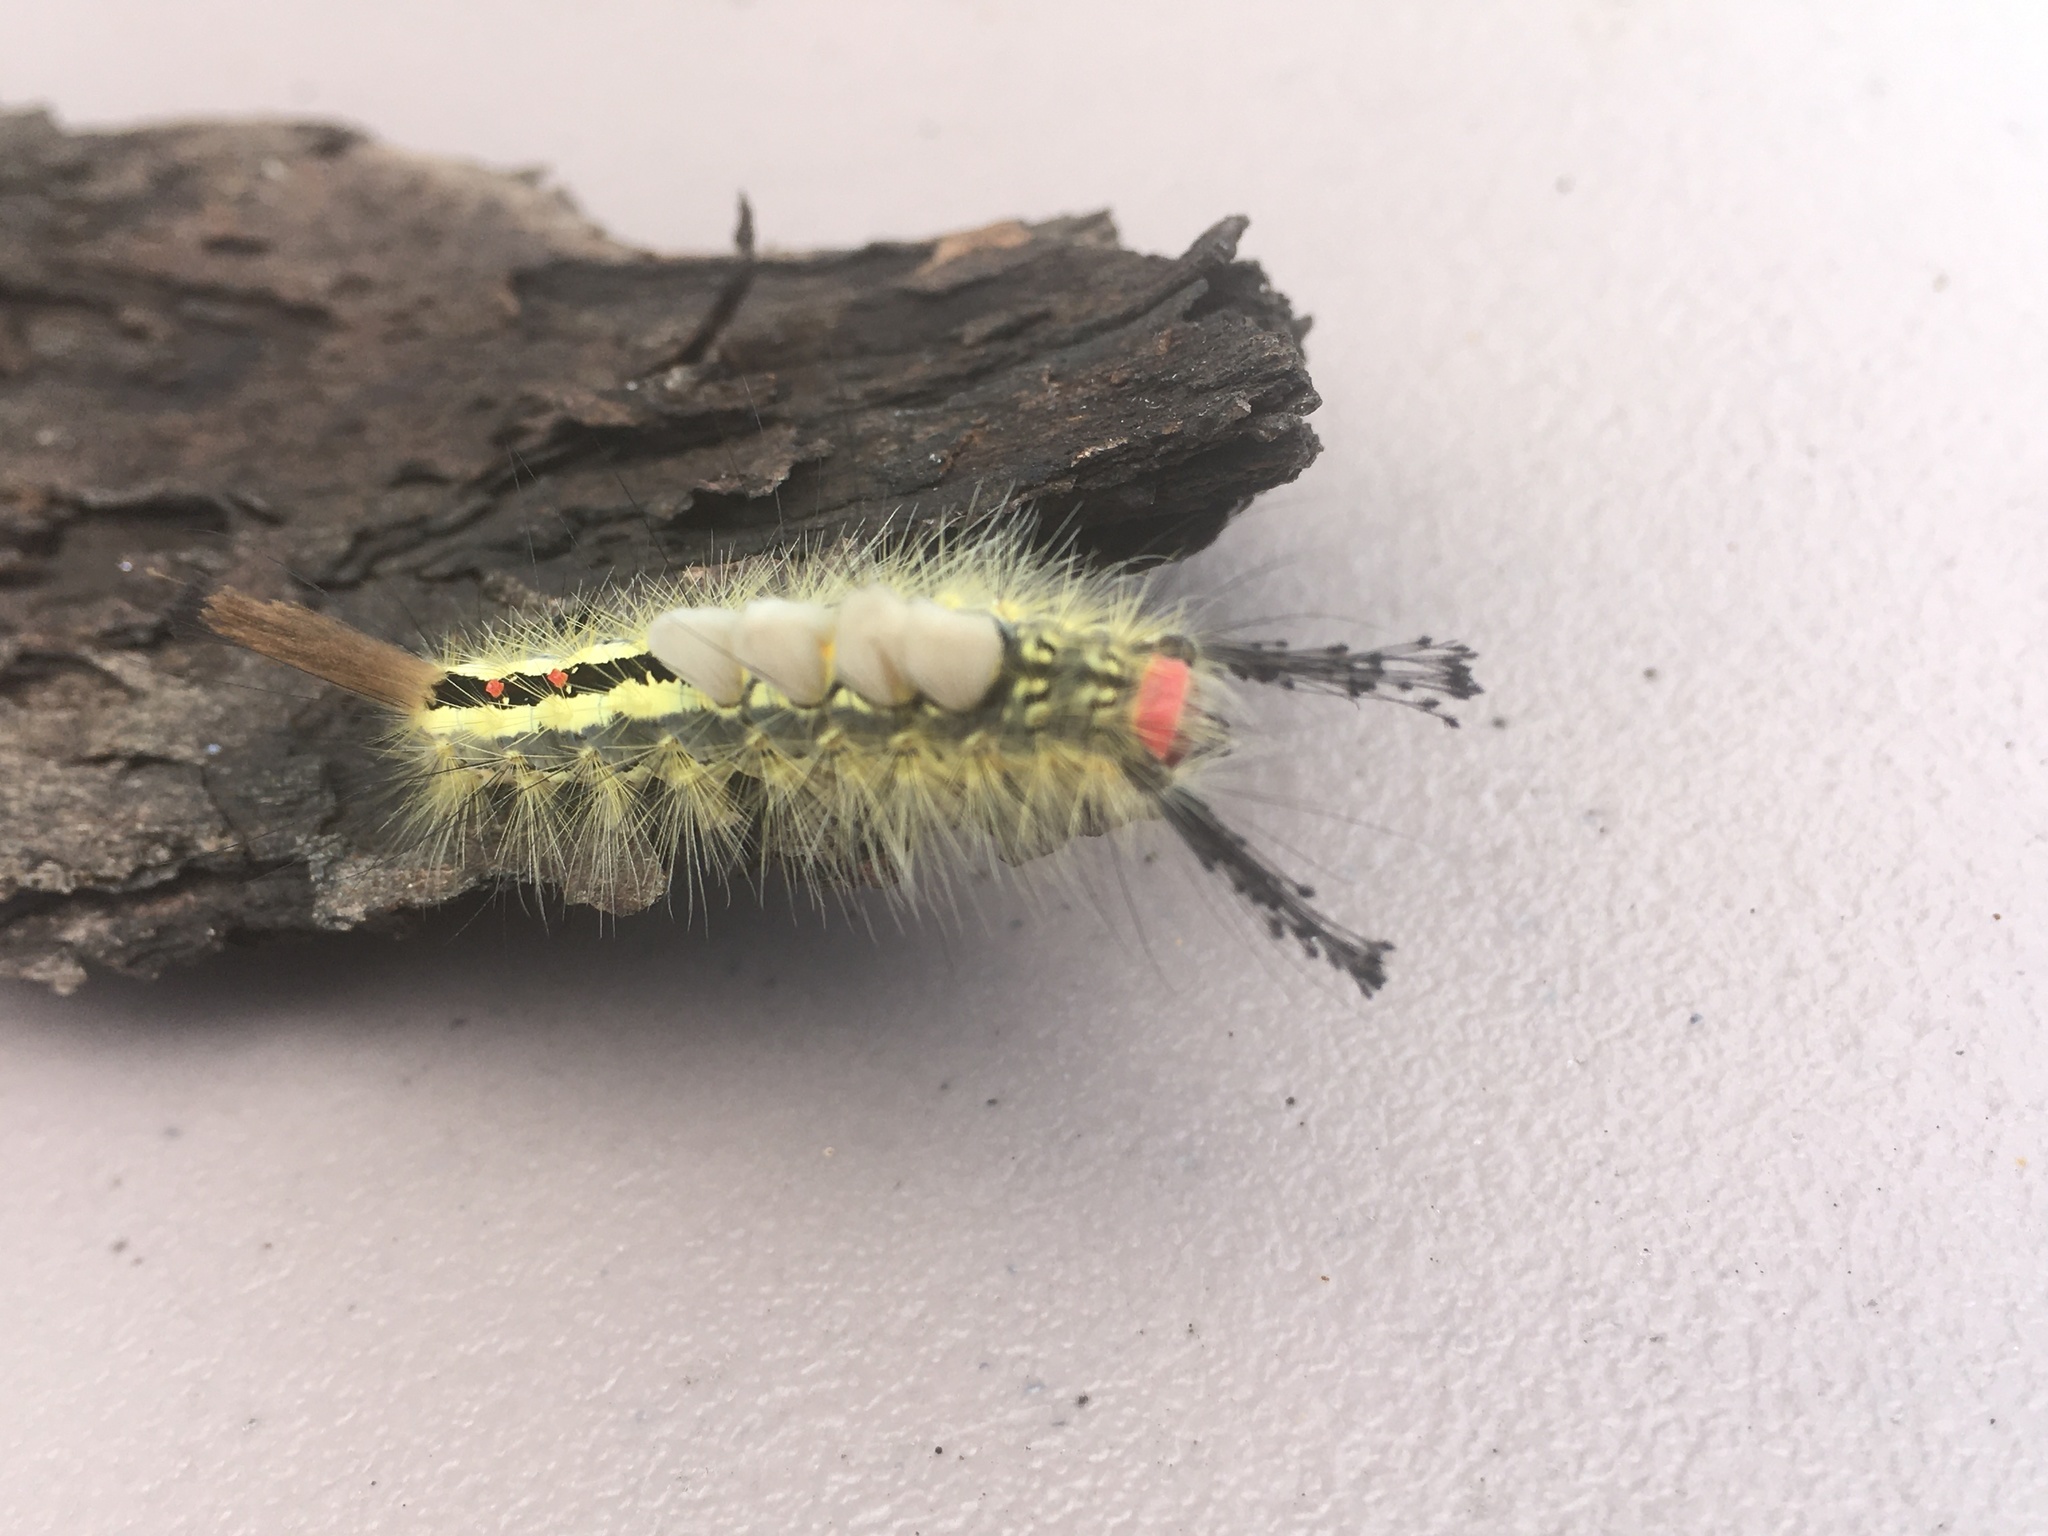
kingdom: Animalia
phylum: Arthropoda
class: Insecta
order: Lepidoptera
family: Erebidae
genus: Orgyia
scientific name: Orgyia leucostigma
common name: White-marked tussock moth
